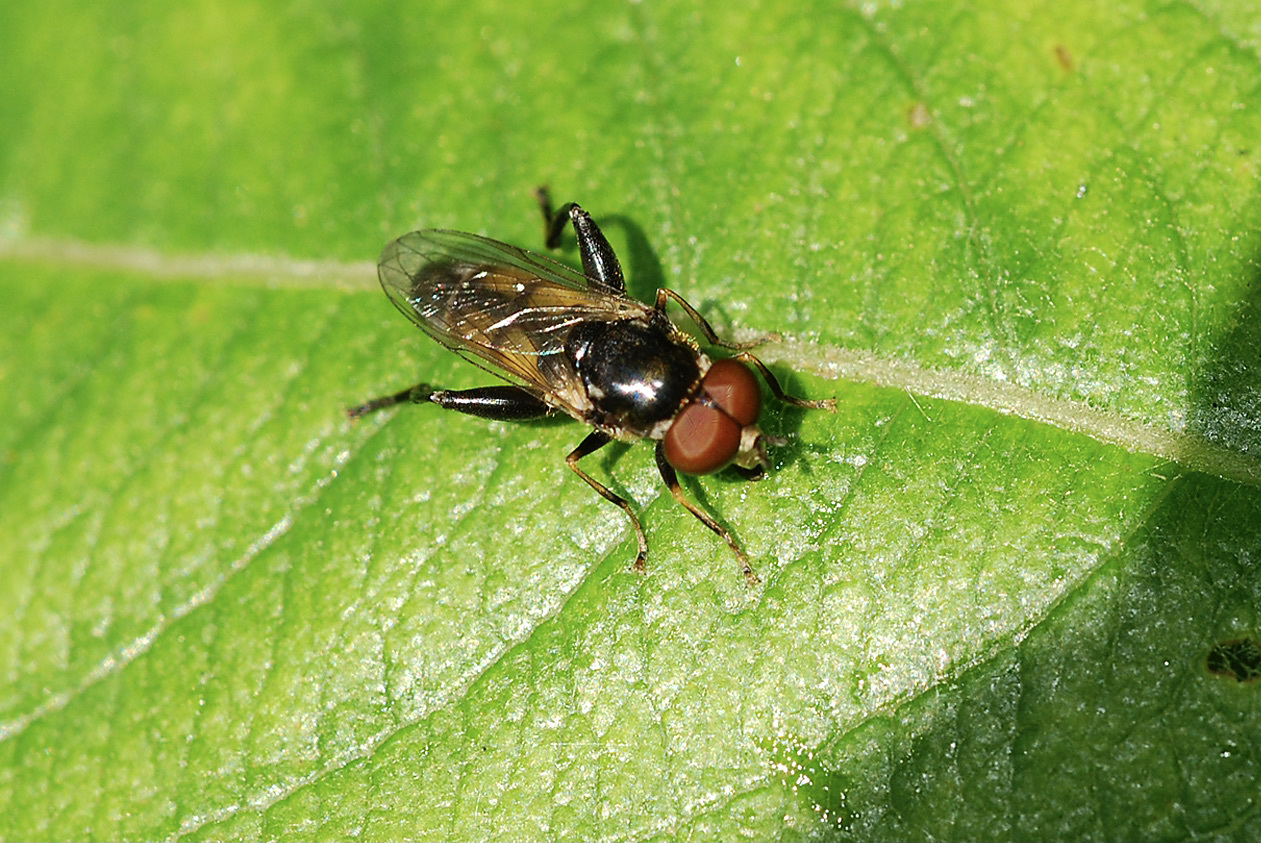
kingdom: Animalia
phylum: Arthropoda
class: Insecta
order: Diptera
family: Syrphidae
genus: Tropidia
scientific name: Tropidia scita
